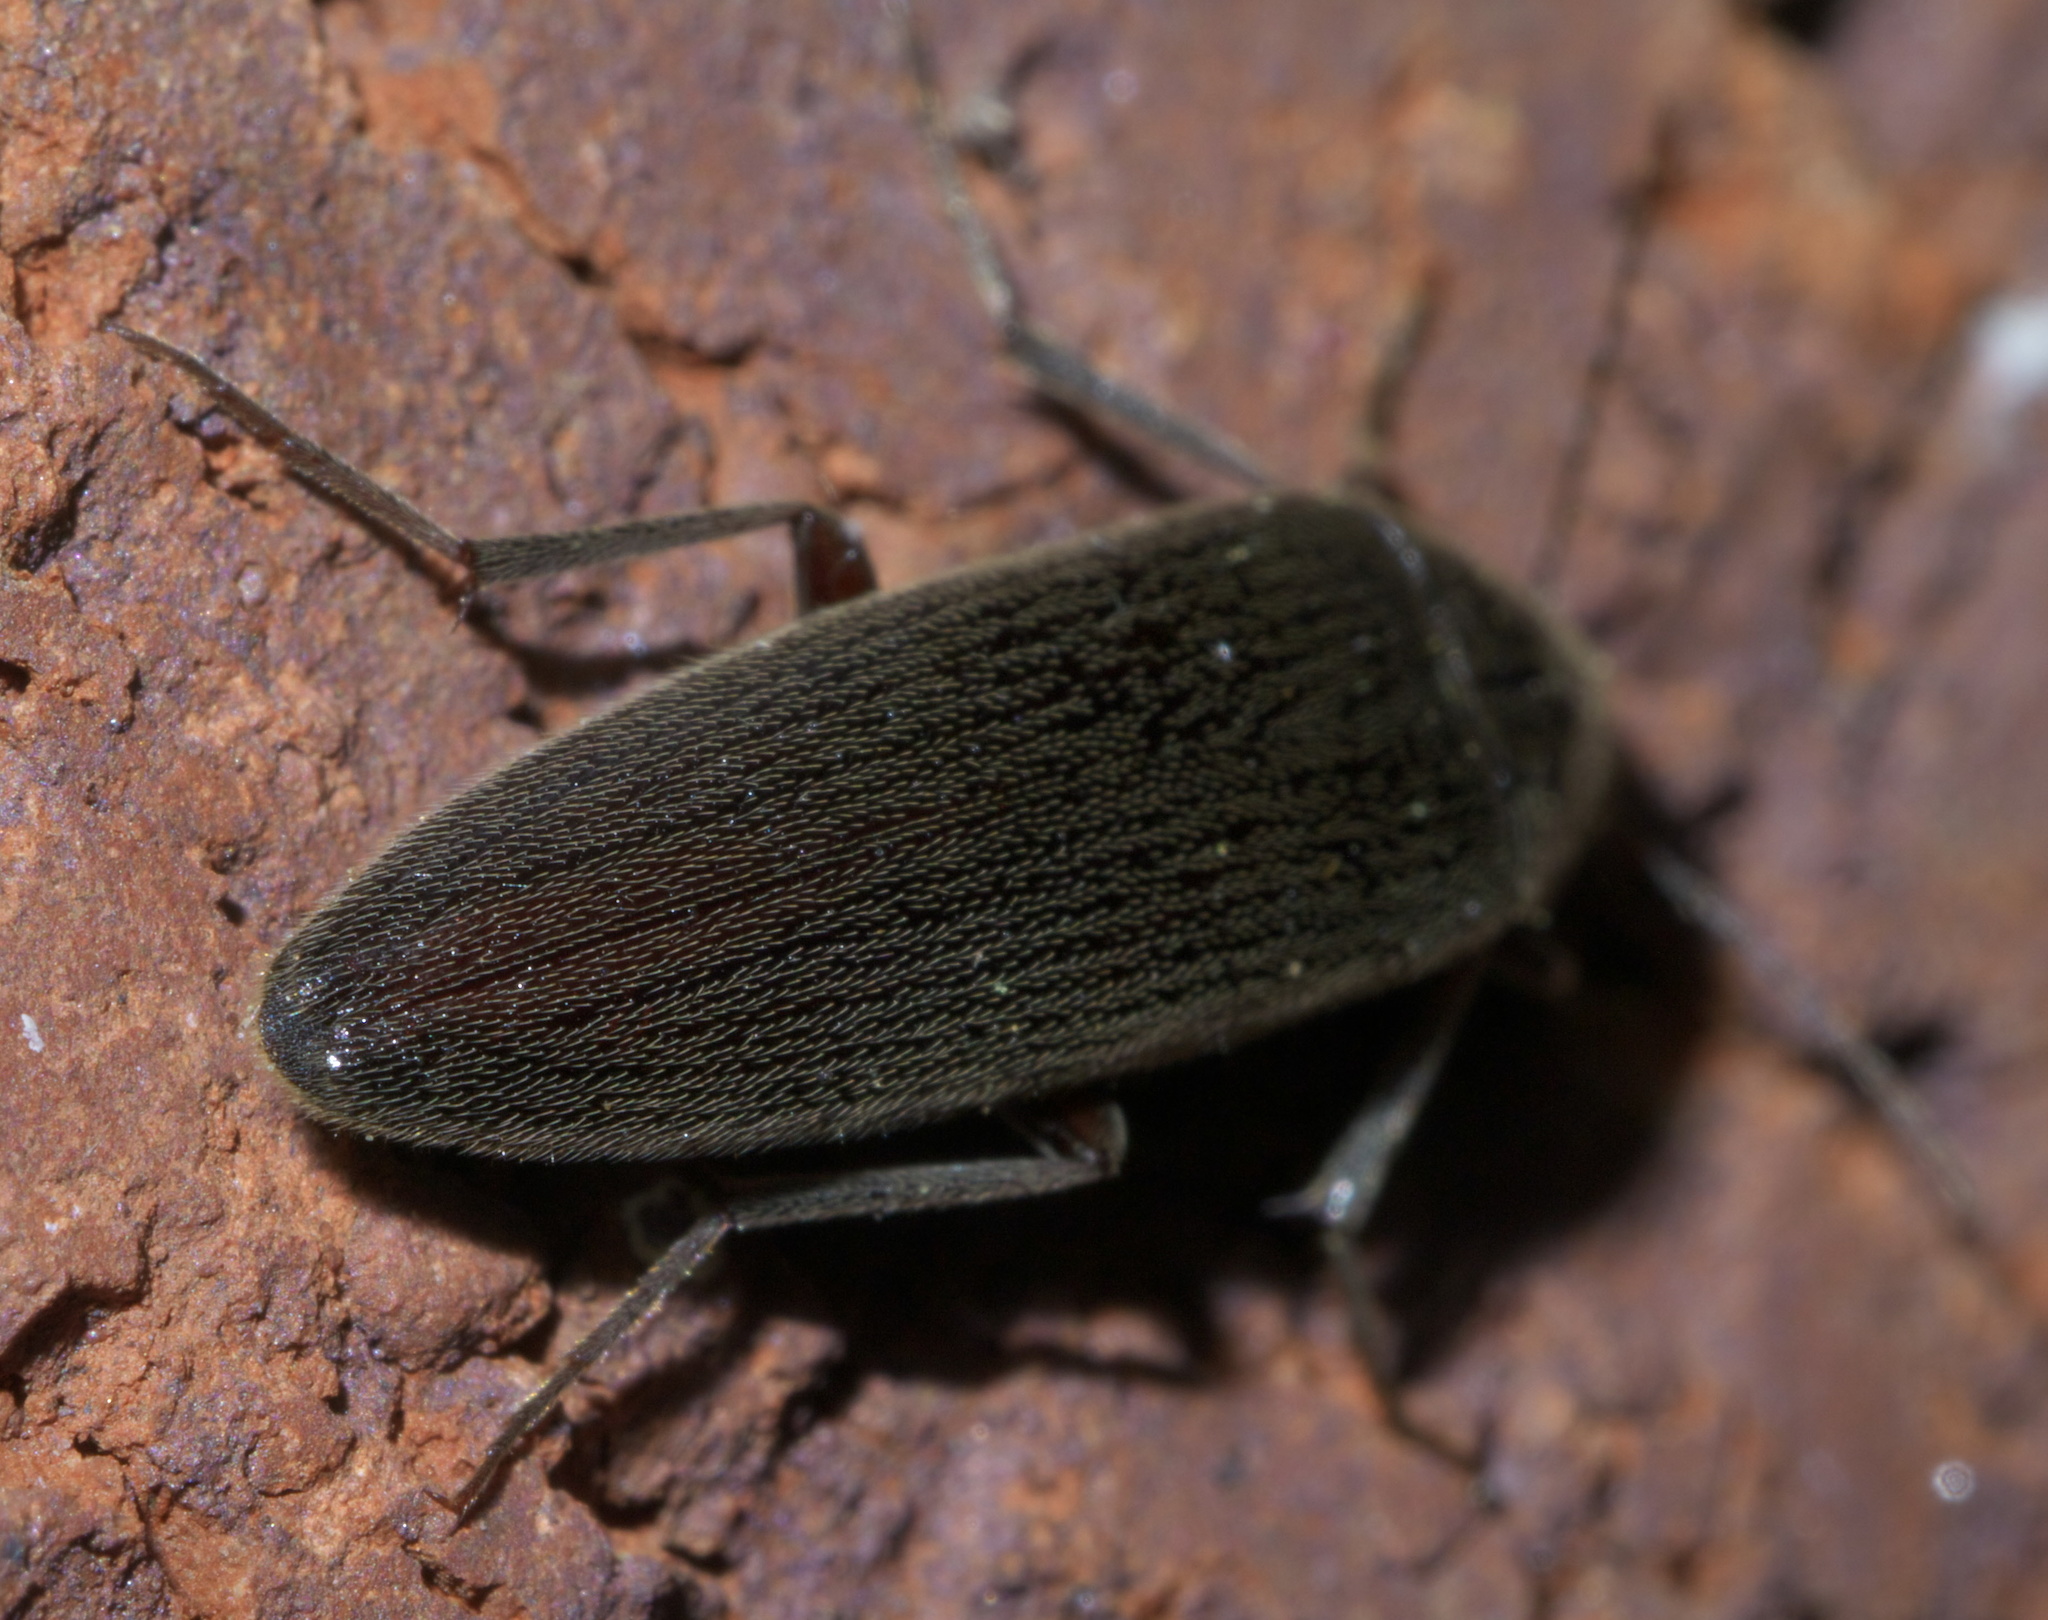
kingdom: Animalia
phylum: Arthropoda
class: Insecta
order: Coleoptera
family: Synchroidae
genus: Synchroa
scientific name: Synchroa punctata
